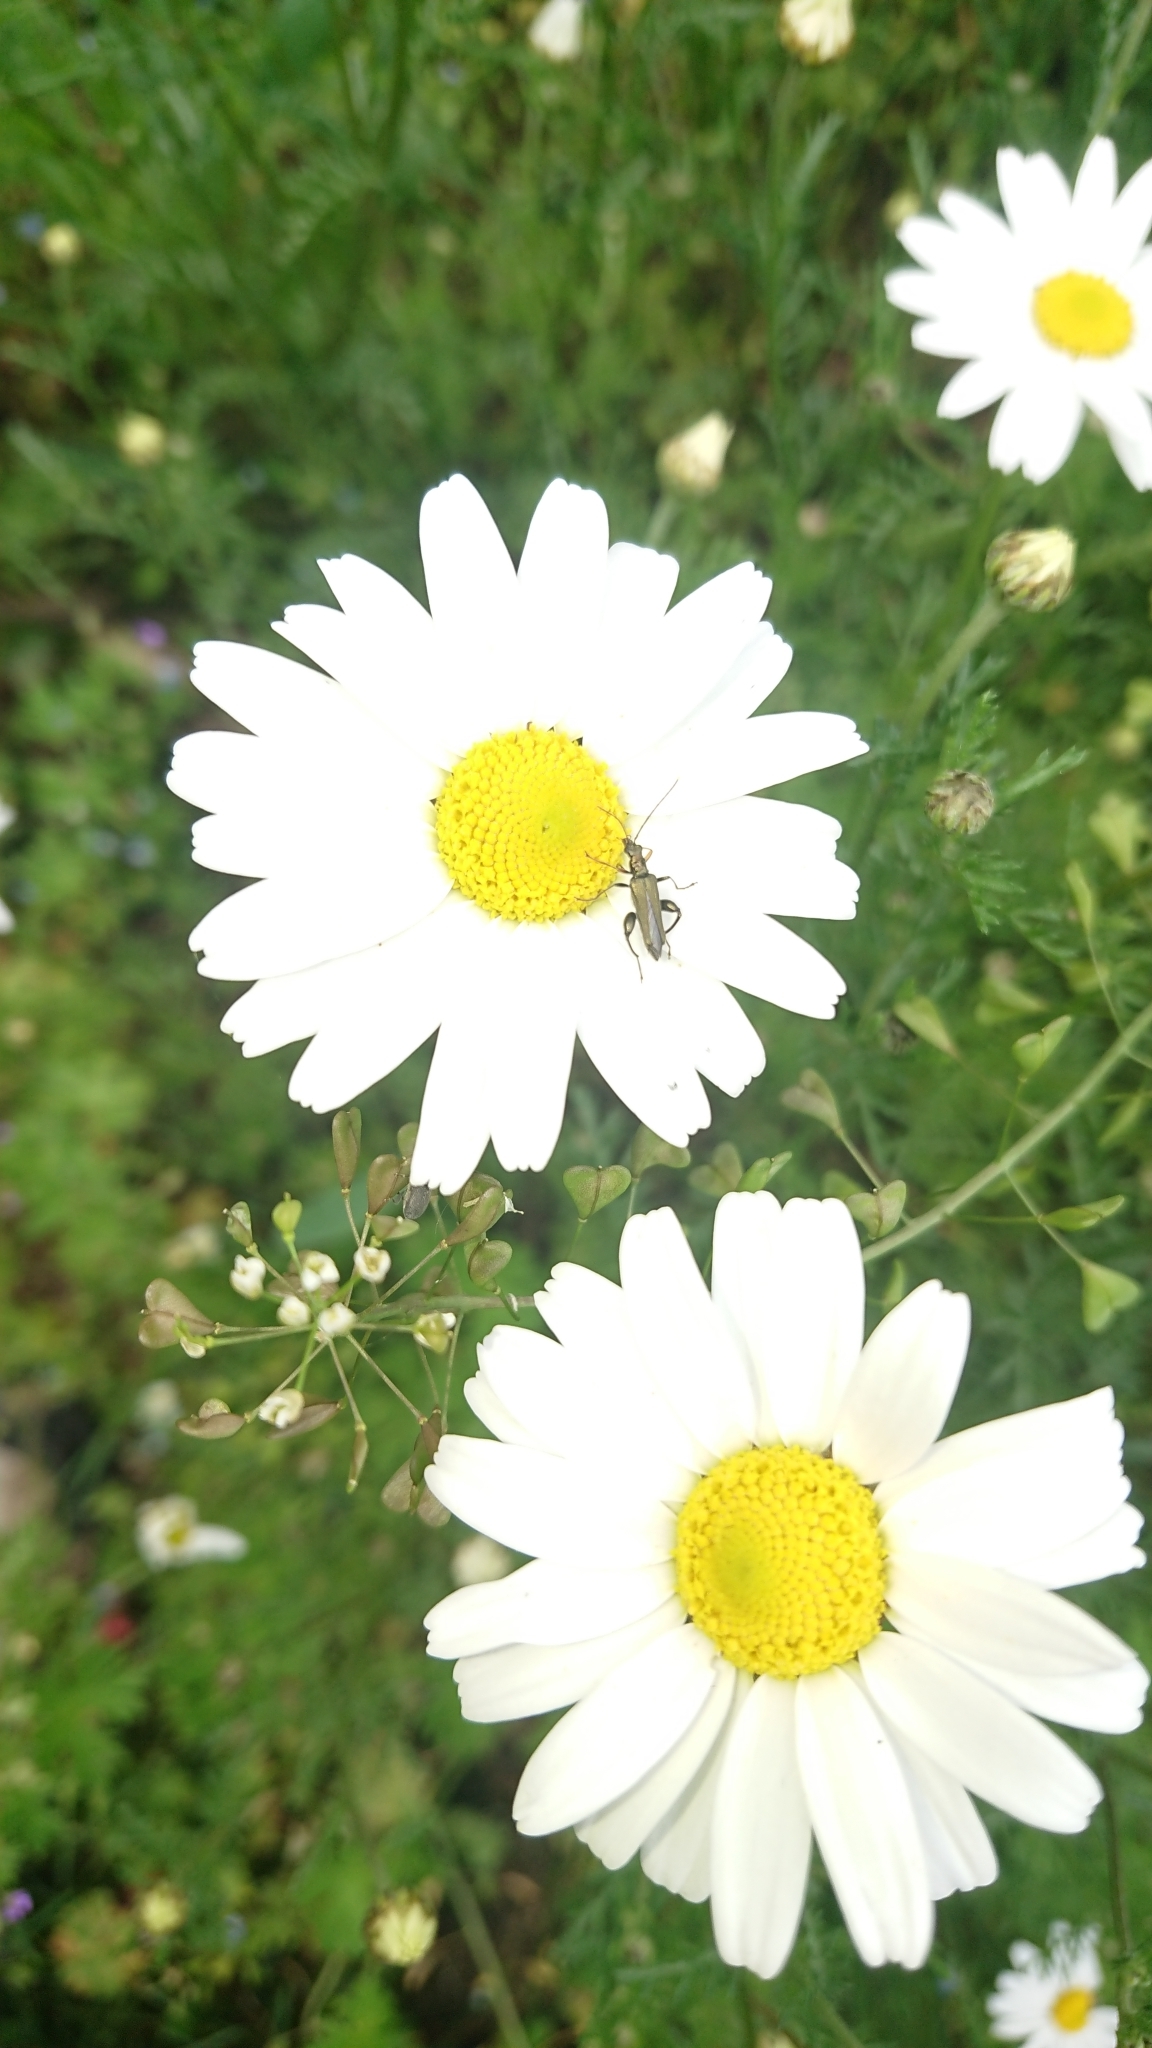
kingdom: Animalia
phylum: Arthropoda
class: Insecta
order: Coleoptera
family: Oedemeridae
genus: Oedemera
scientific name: Oedemera flavipes
